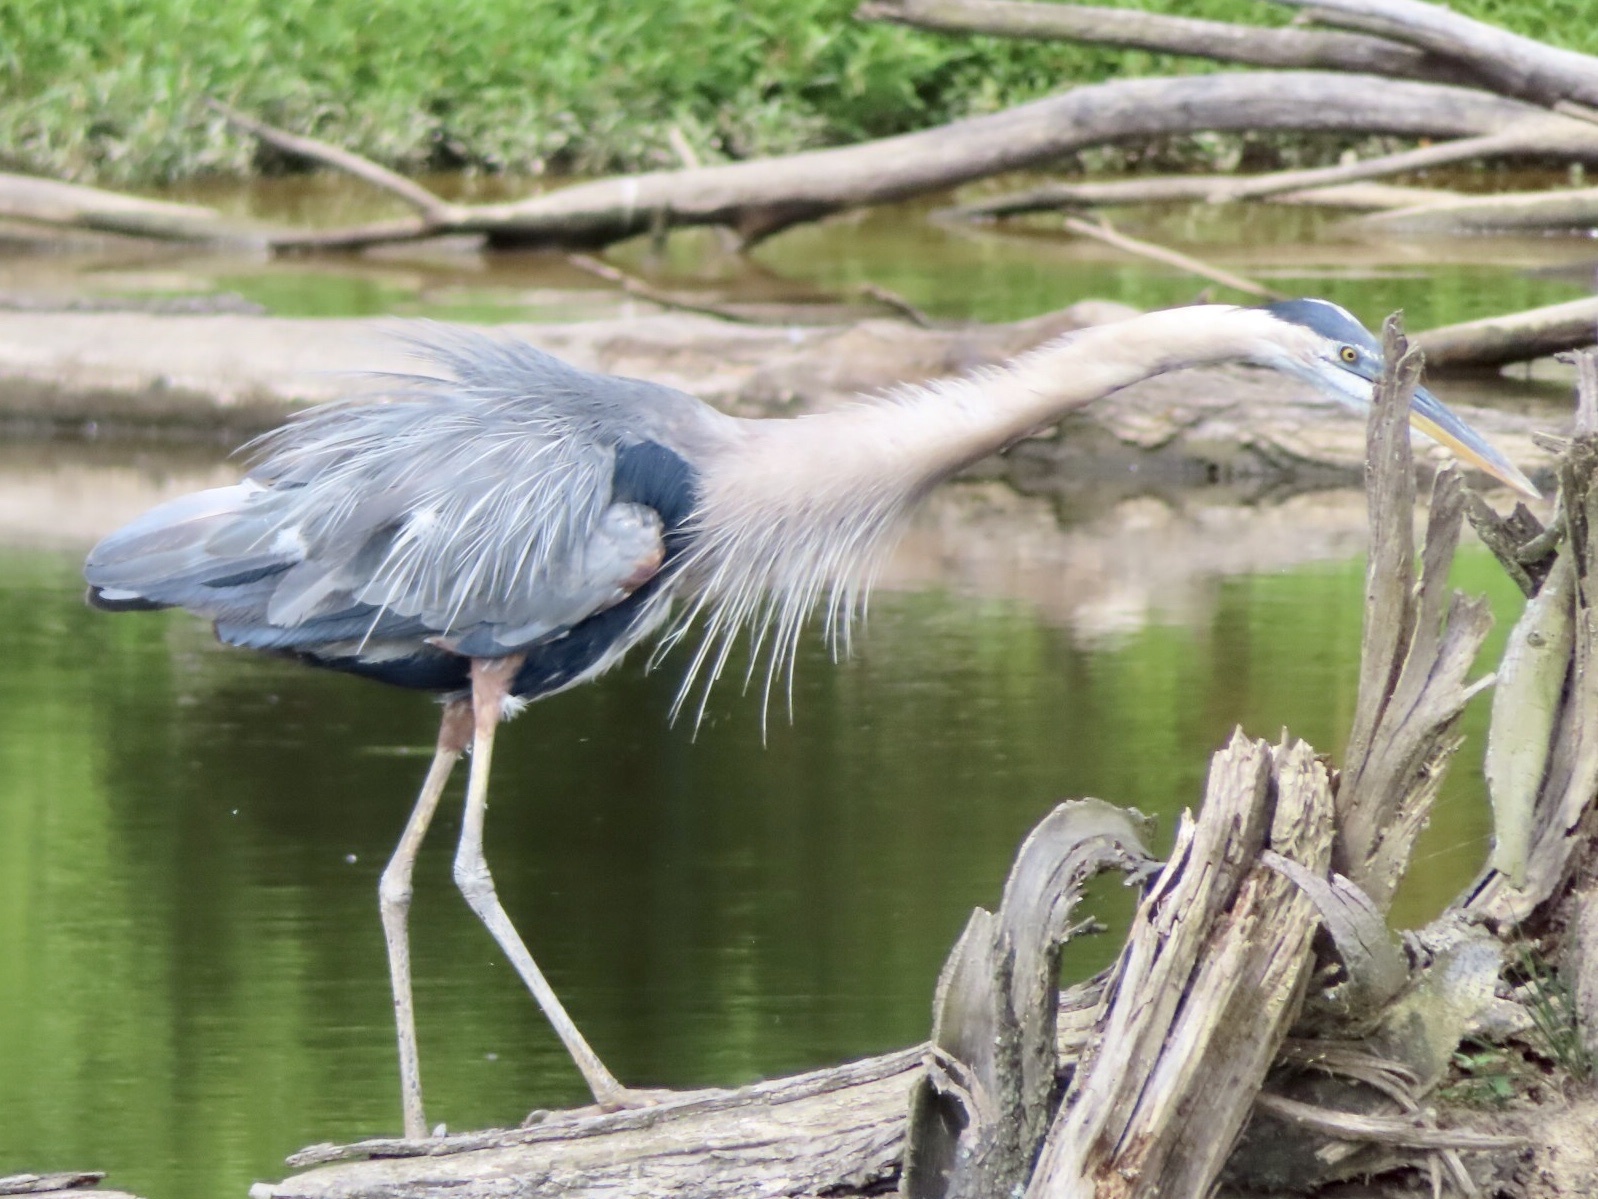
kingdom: Animalia
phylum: Chordata
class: Aves
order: Pelecaniformes
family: Ardeidae
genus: Ardea
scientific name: Ardea herodias
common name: Great blue heron
